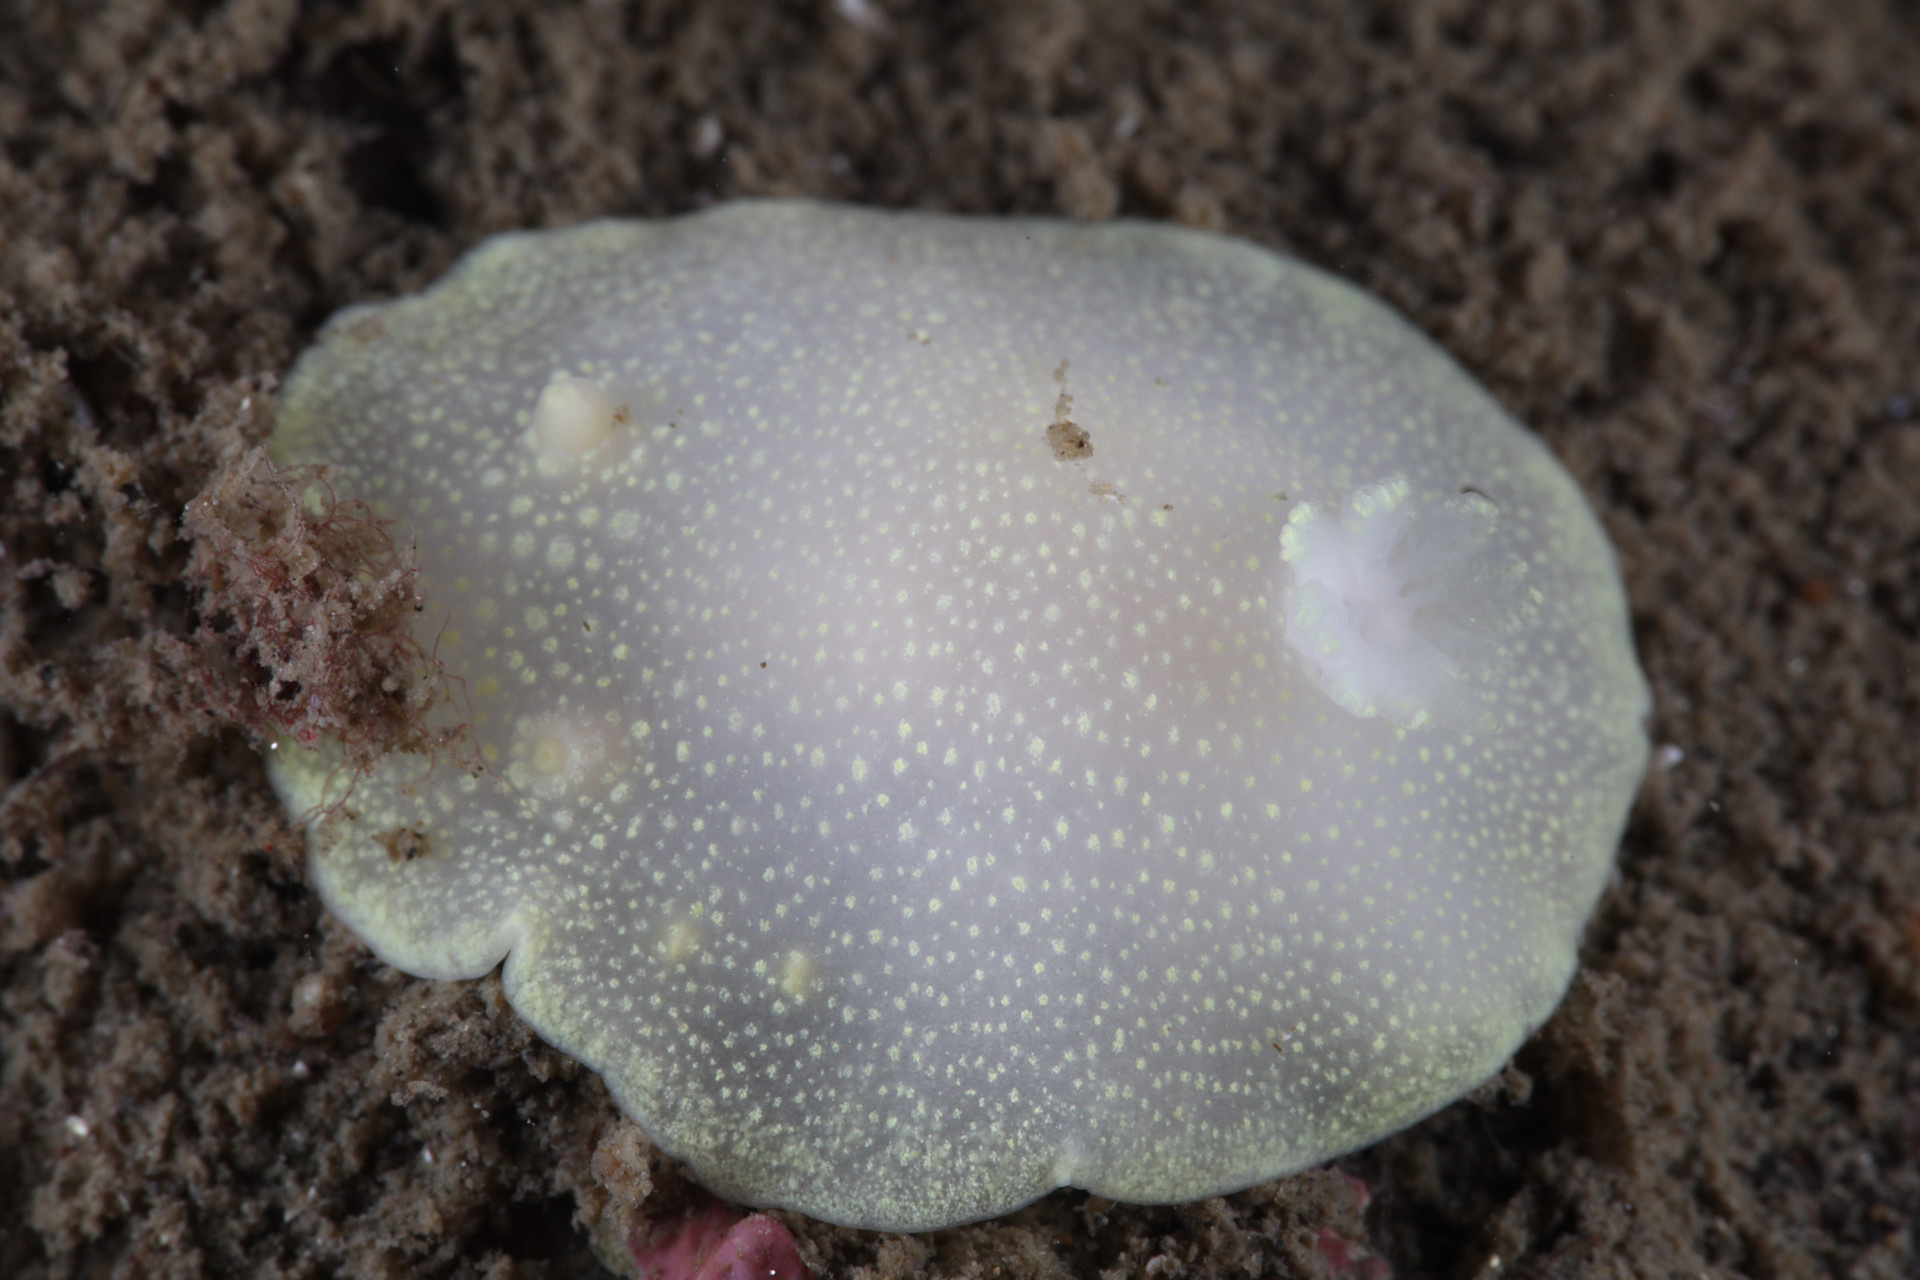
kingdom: Animalia
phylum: Mollusca
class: Gastropoda
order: Nudibranchia
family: Cadlinidae
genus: Cadlina
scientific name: Cadlina laevis
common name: White atlantic cadlina
